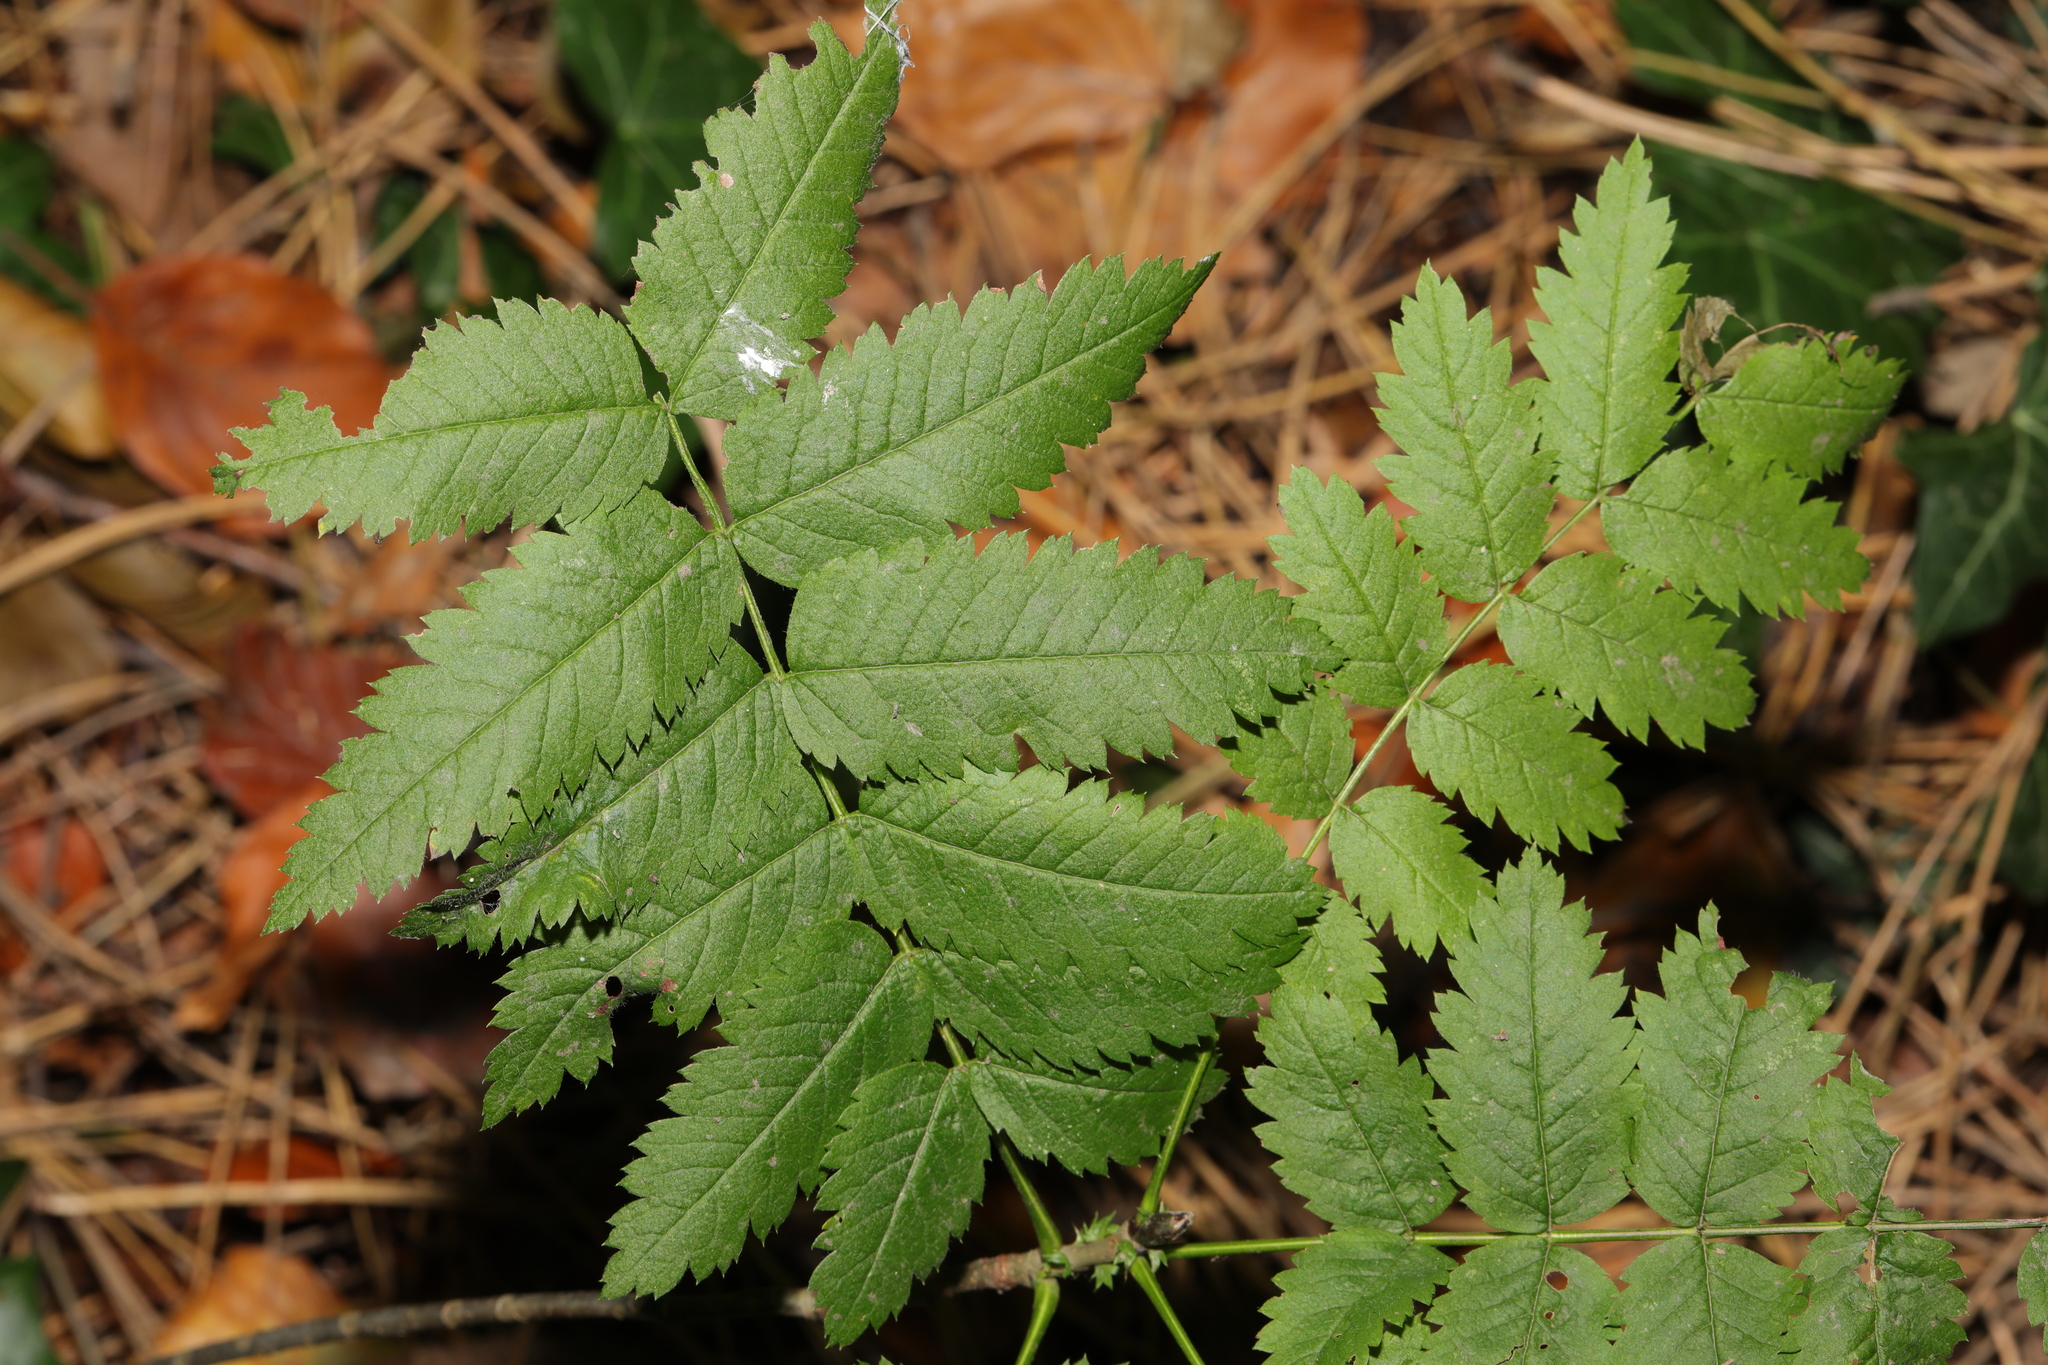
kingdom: Plantae
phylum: Tracheophyta
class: Magnoliopsida
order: Rosales
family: Rosaceae
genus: Sorbus
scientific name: Sorbus aucuparia
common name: Rowan
